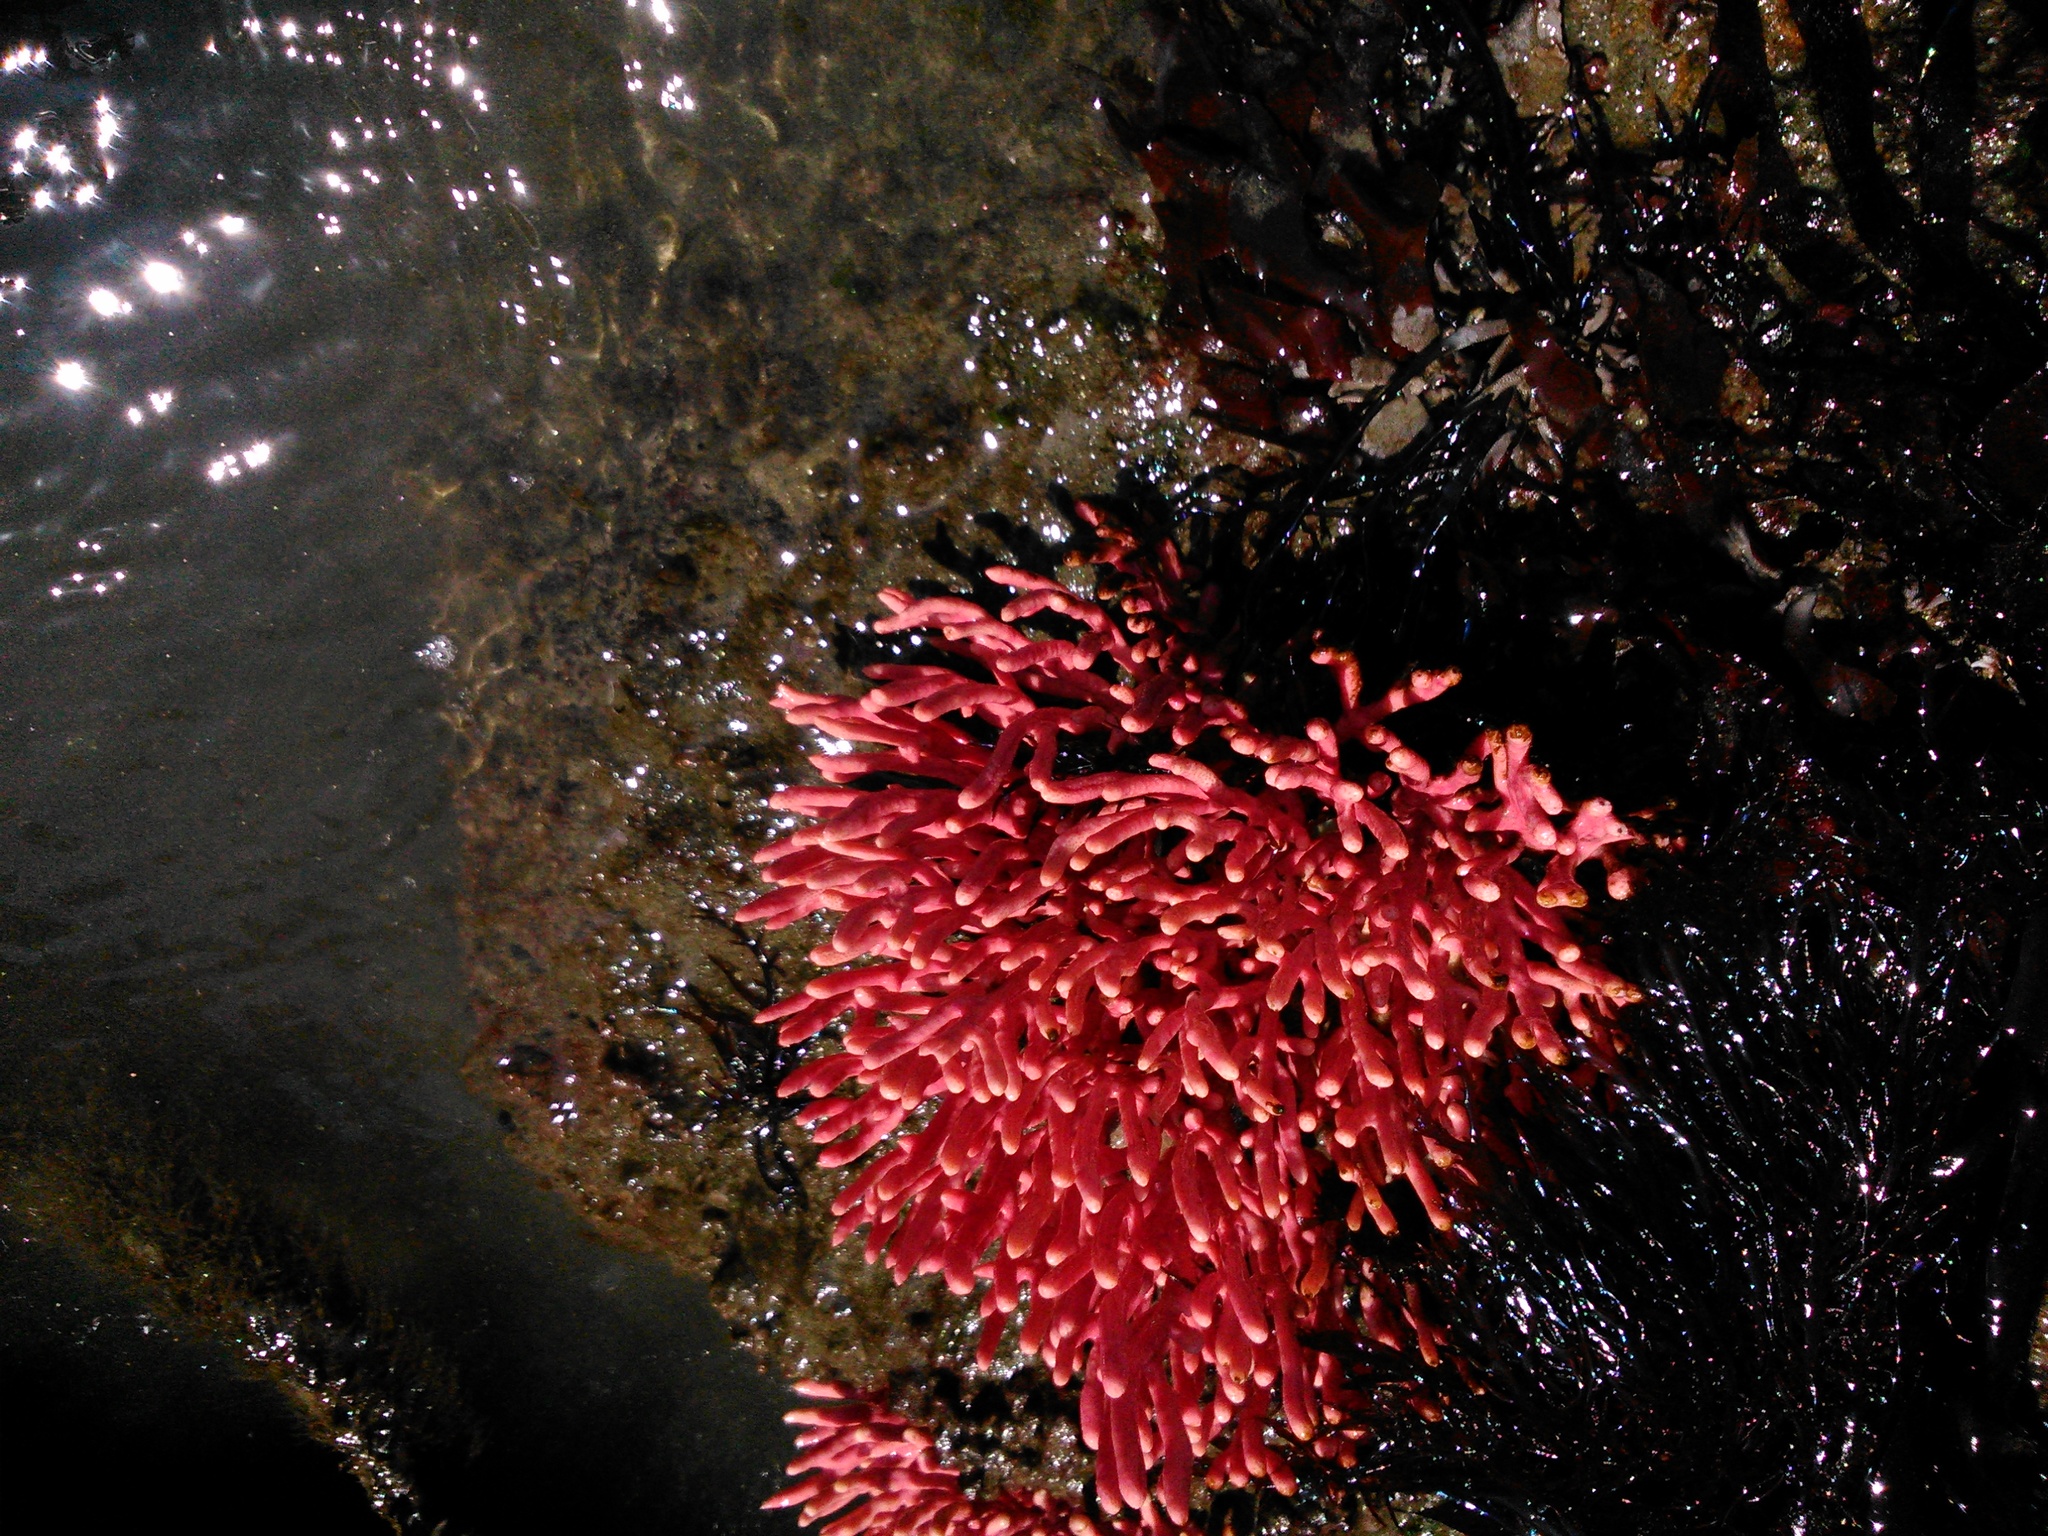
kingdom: Animalia
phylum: Cnidaria
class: Anthozoa
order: Malacalcyonacea
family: Gorgoniidae
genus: Leptogorgia
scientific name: Leptogorgia exigua
